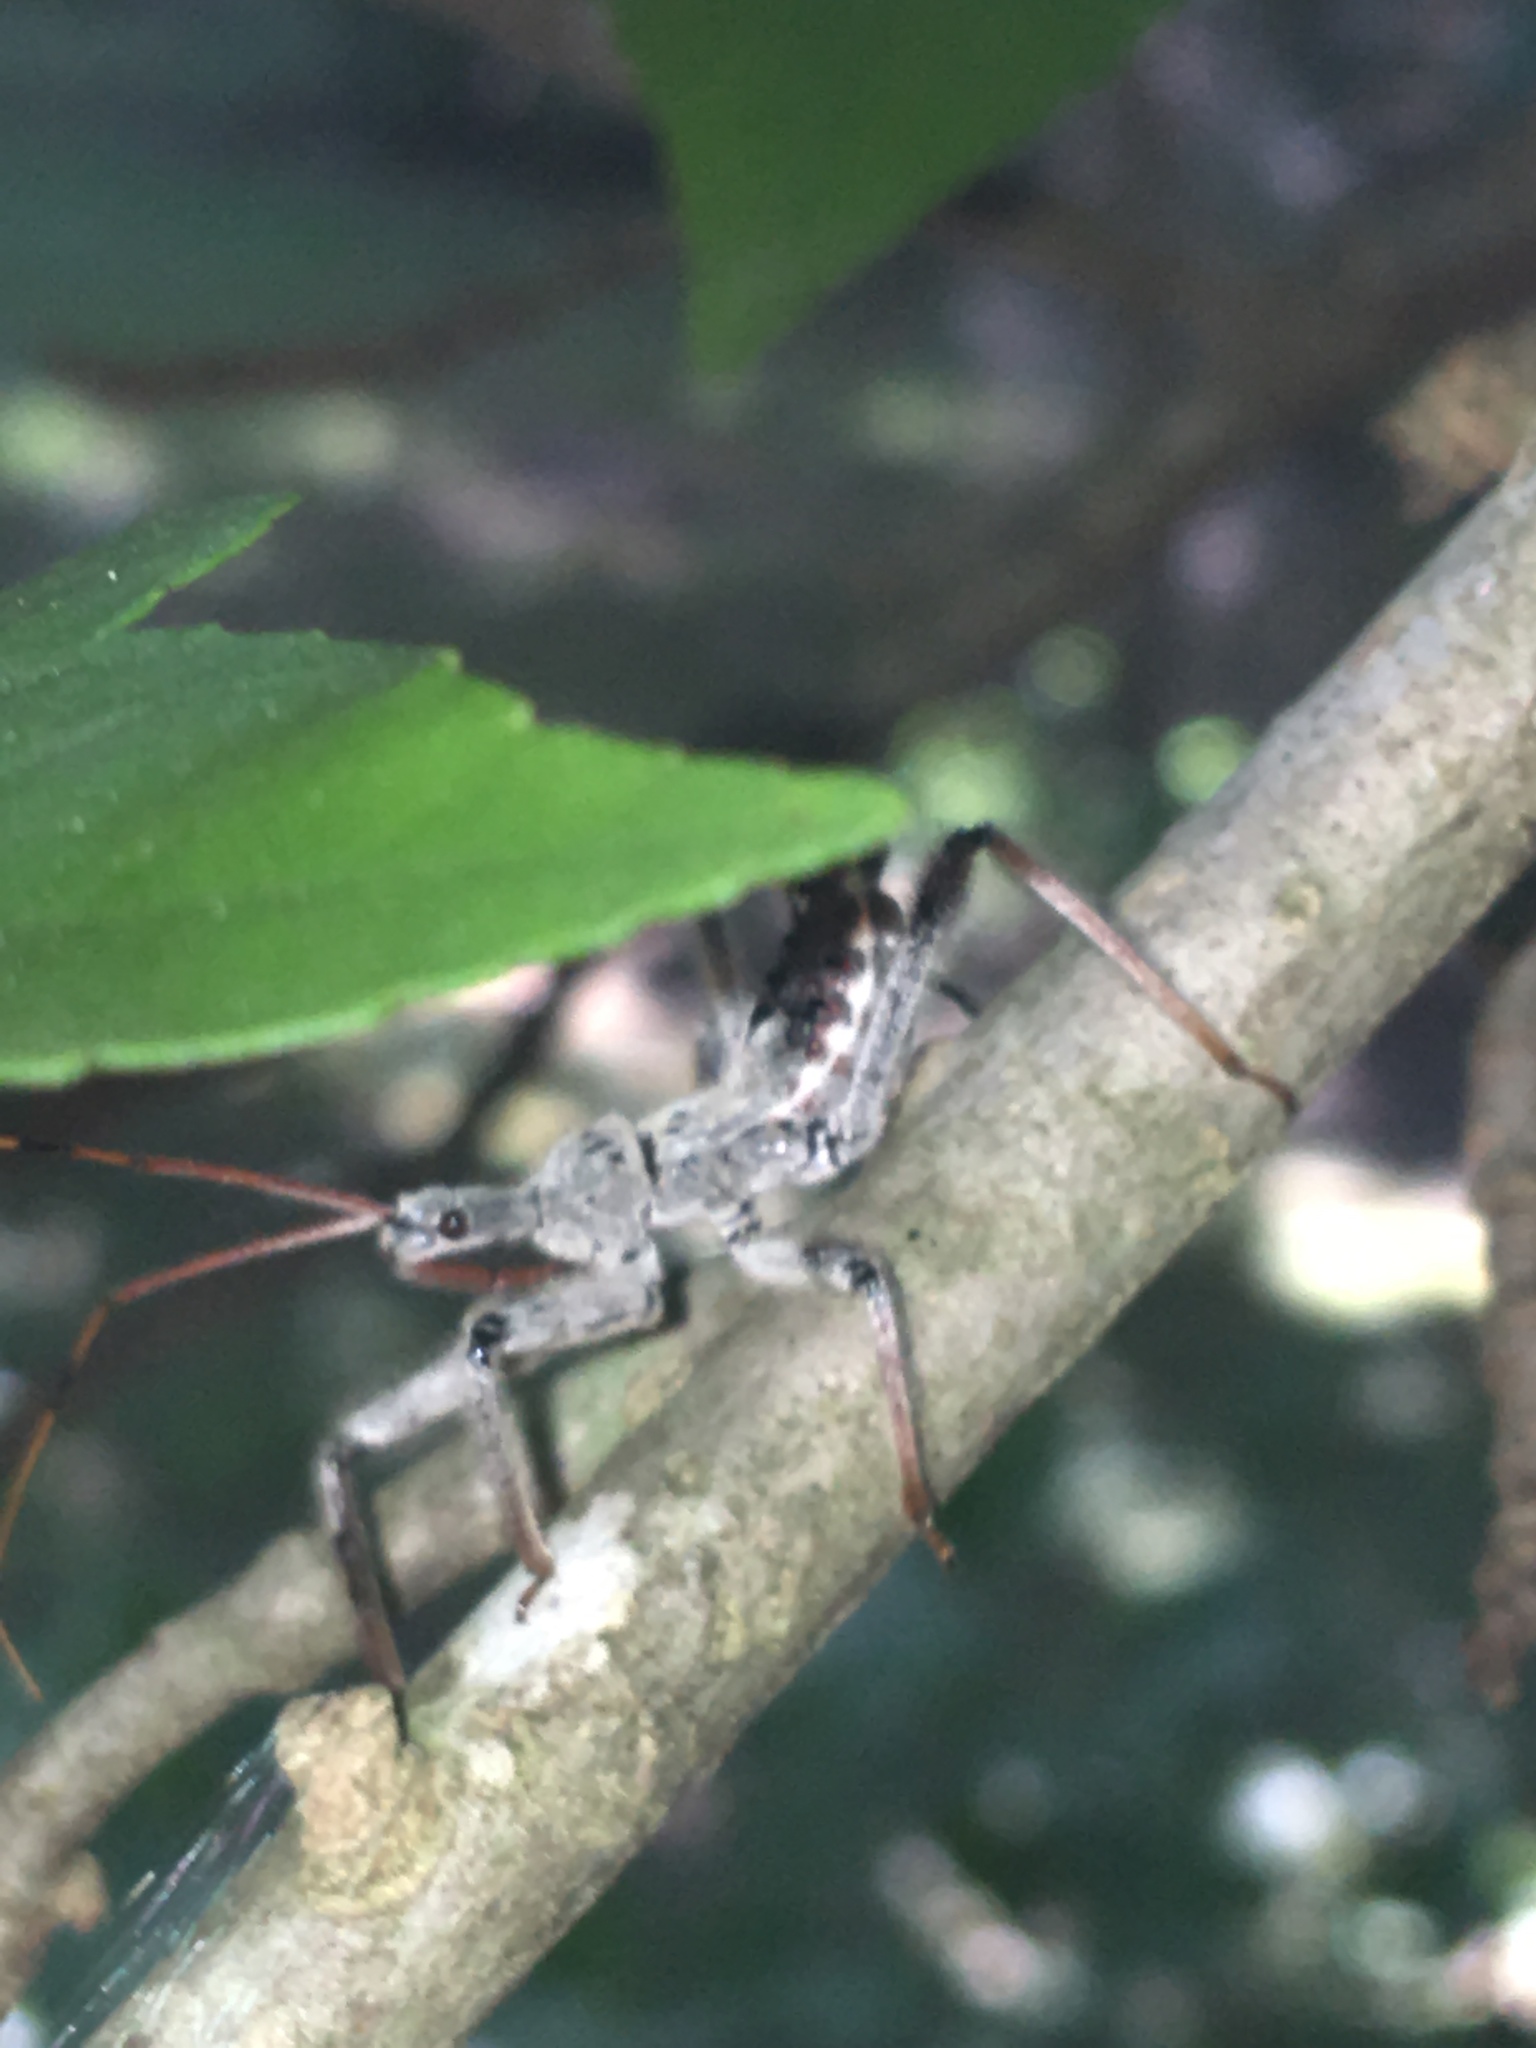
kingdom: Animalia
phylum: Arthropoda
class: Insecta
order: Hemiptera
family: Reduviidae
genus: Arilus
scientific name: Arilus cristatus
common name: North american wheel bug
